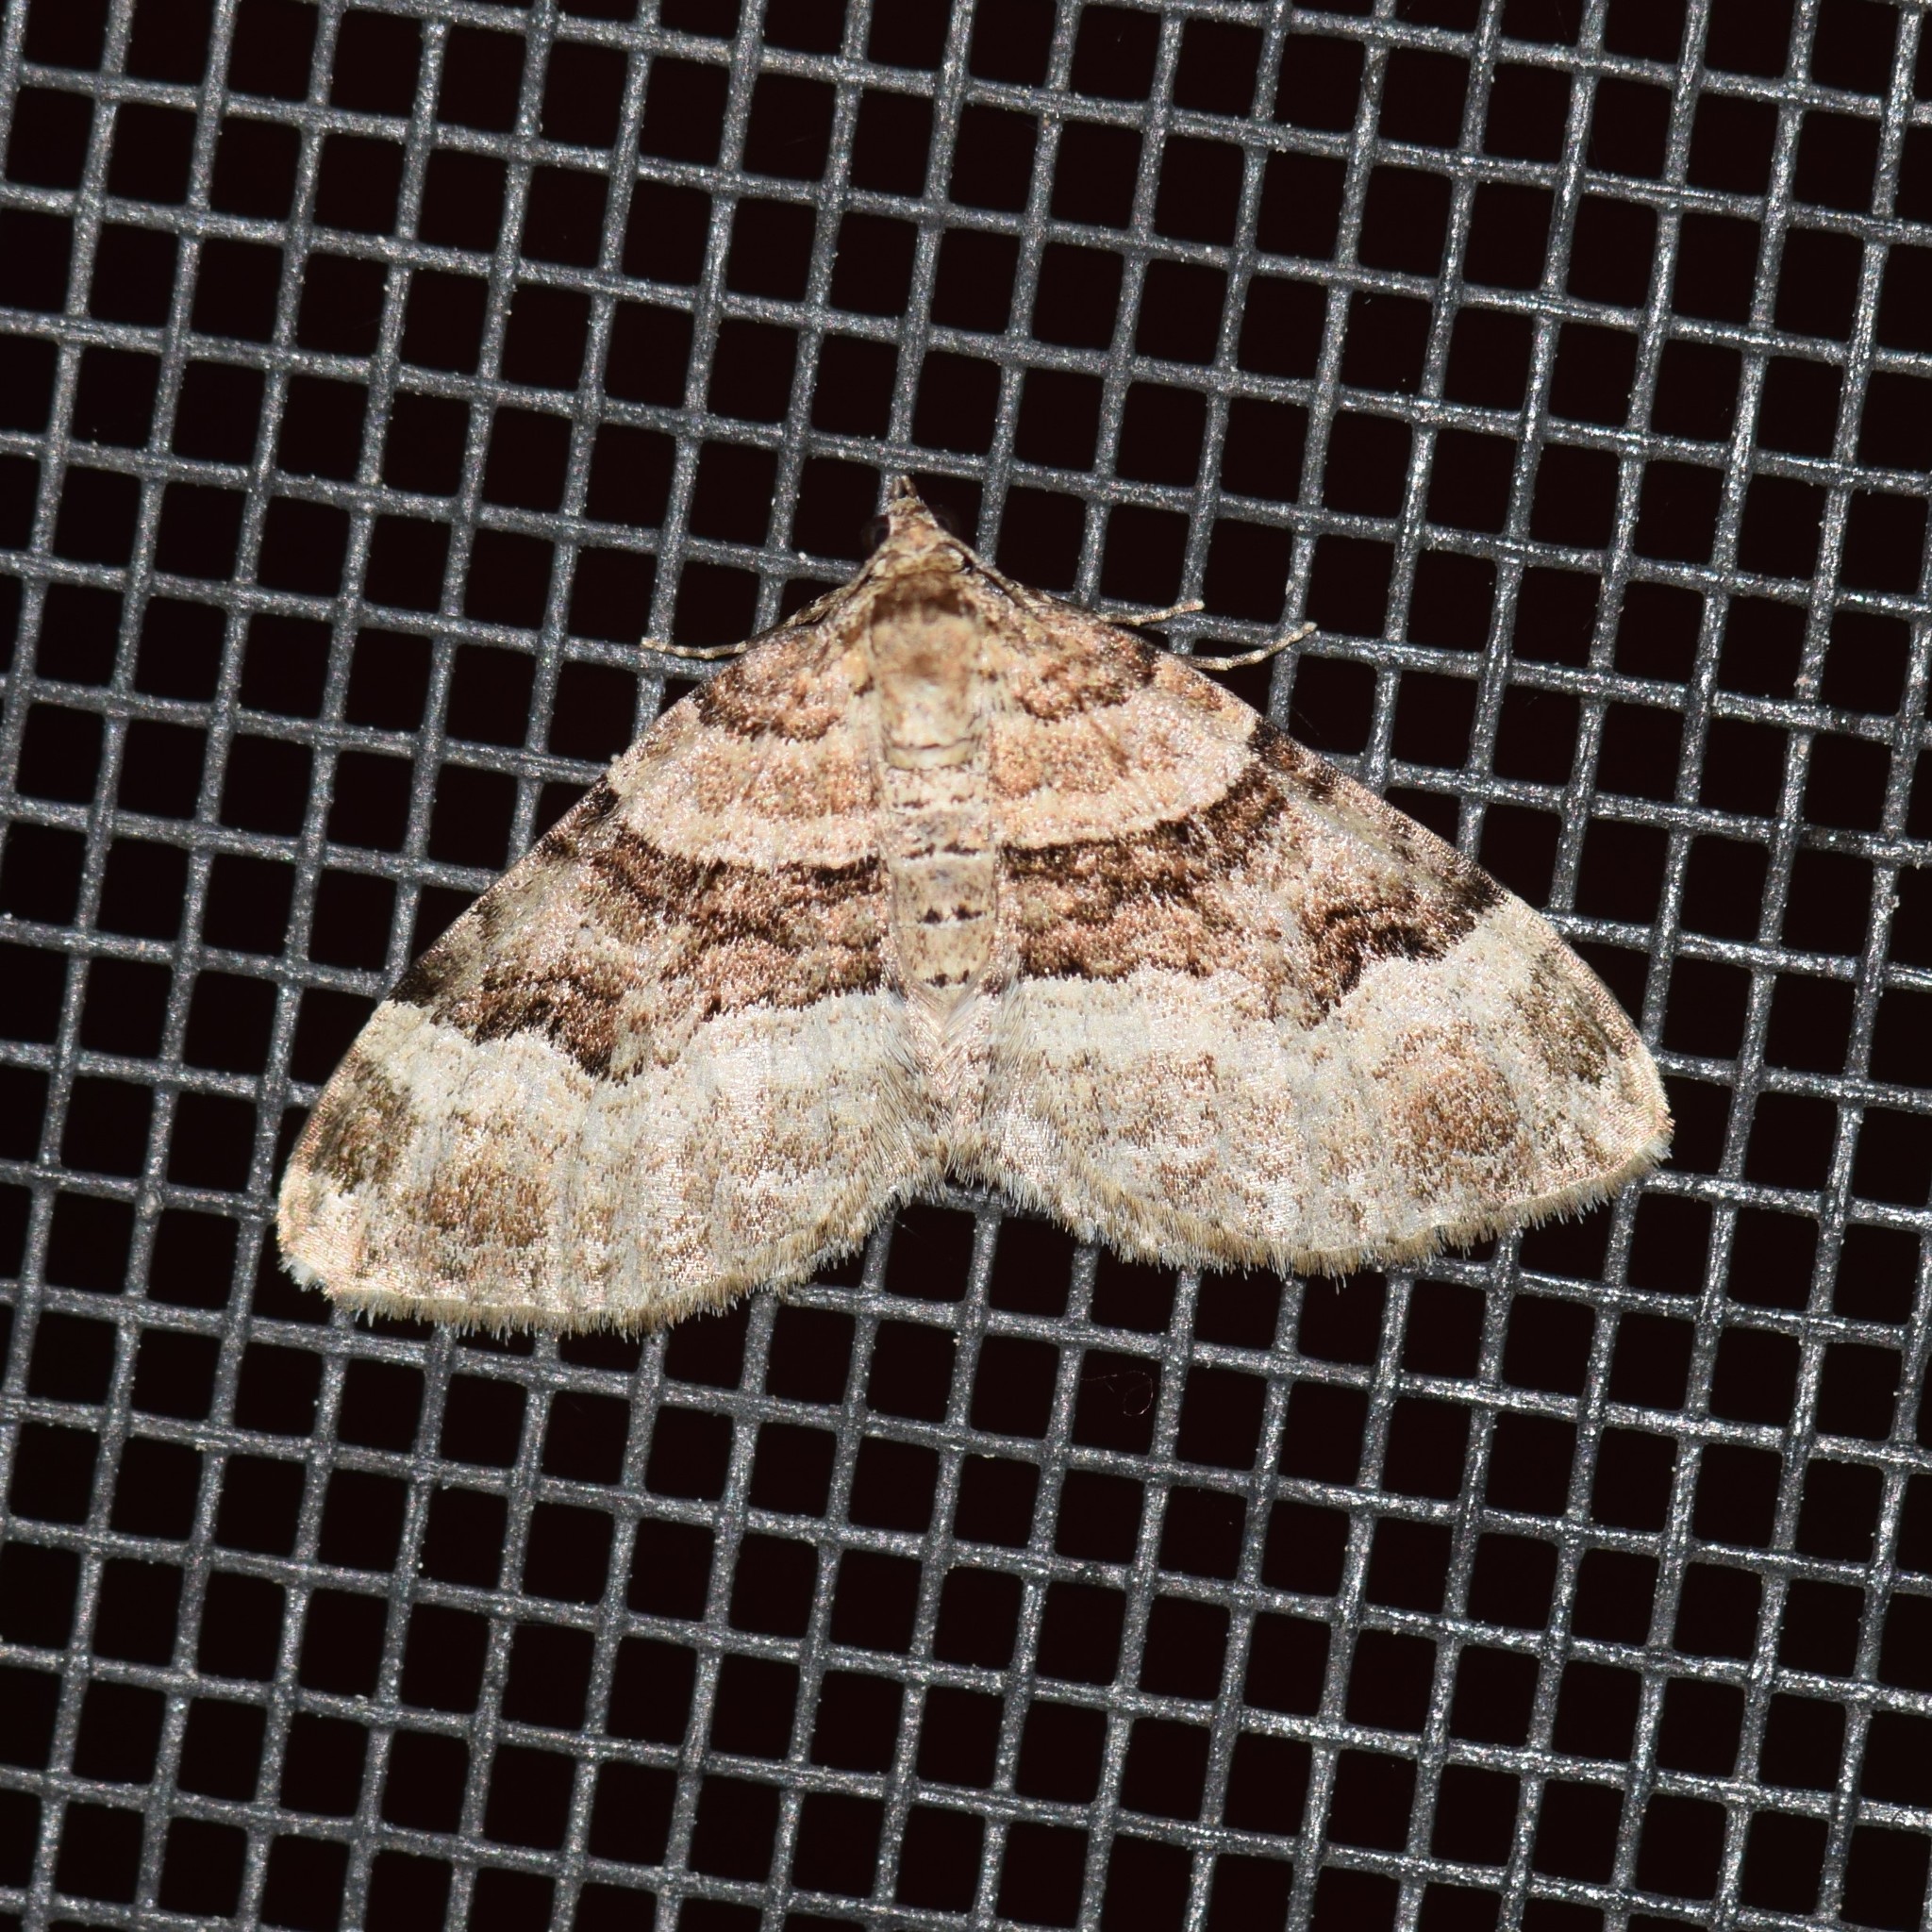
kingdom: Animalia
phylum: Arthropoda
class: Insecta
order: Lepidoptera
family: Geometridae
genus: Xanthorhoe
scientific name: Xanthorhoe lacustrata
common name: Toothed brown carpet
